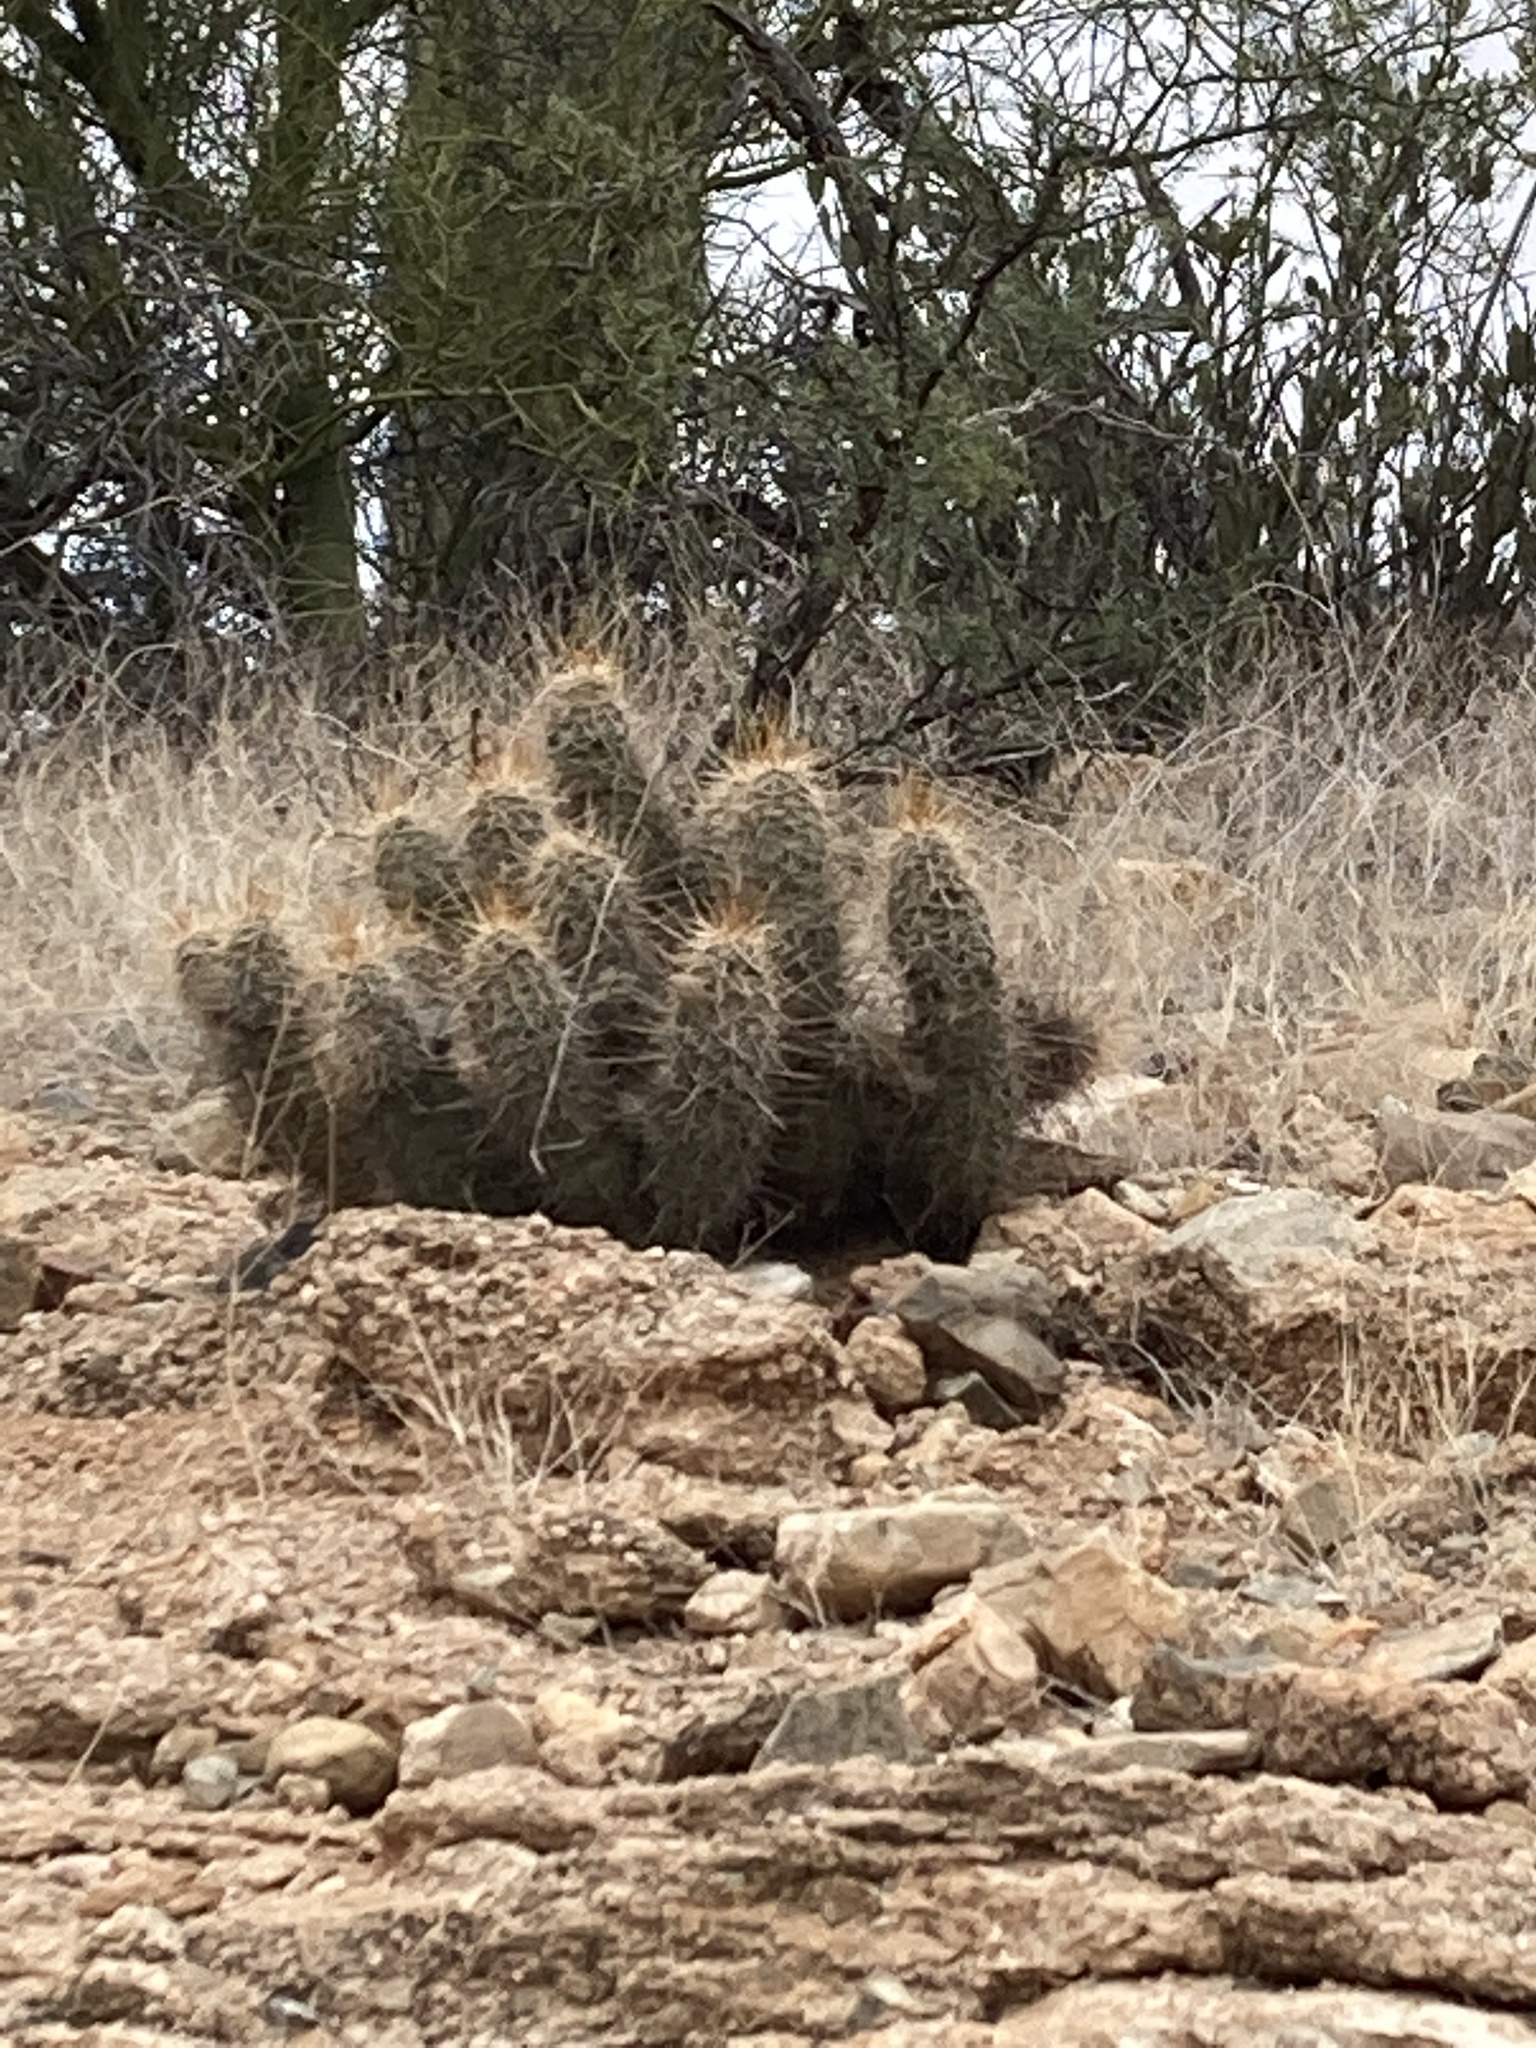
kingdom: Plantae
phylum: Tracheophyta
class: Magnoliopsida
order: Caryophyllales
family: Cactaceae
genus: Echinocereus
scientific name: Echinocereus fasciculatus
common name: Bundle hedgehog
